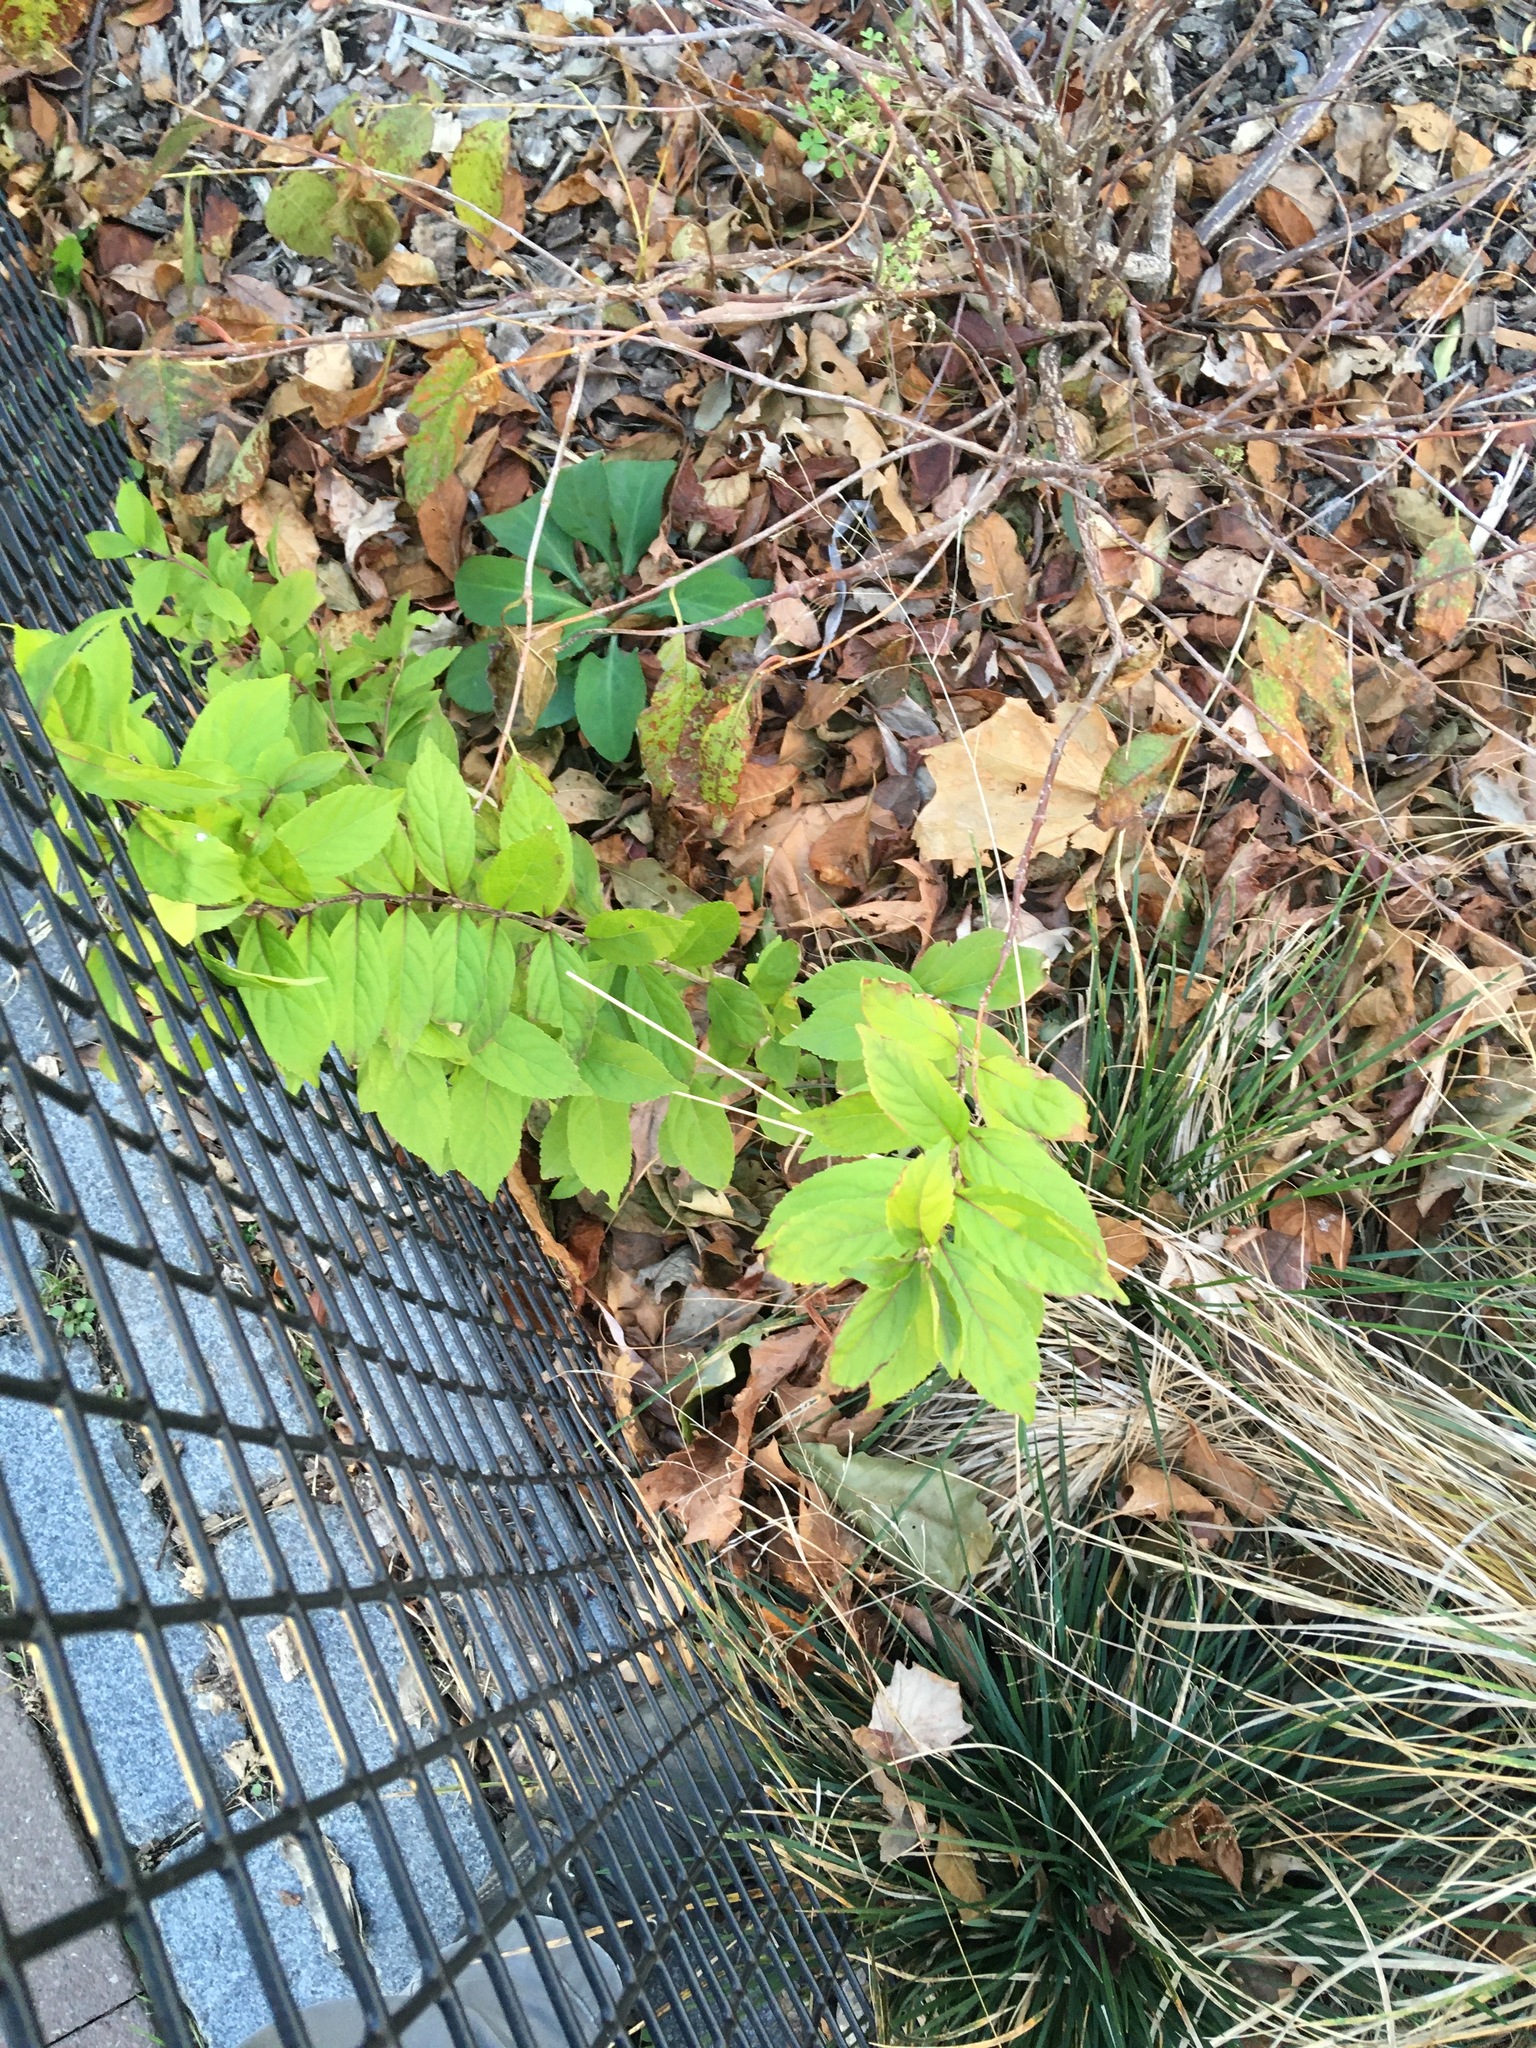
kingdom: Plantae
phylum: Tracheophyta
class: Magnoliopsida
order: Lamiales
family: Lamiaceae
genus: Callicarpa
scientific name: Callicarpa dichotoma
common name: Purple beauty-berry
